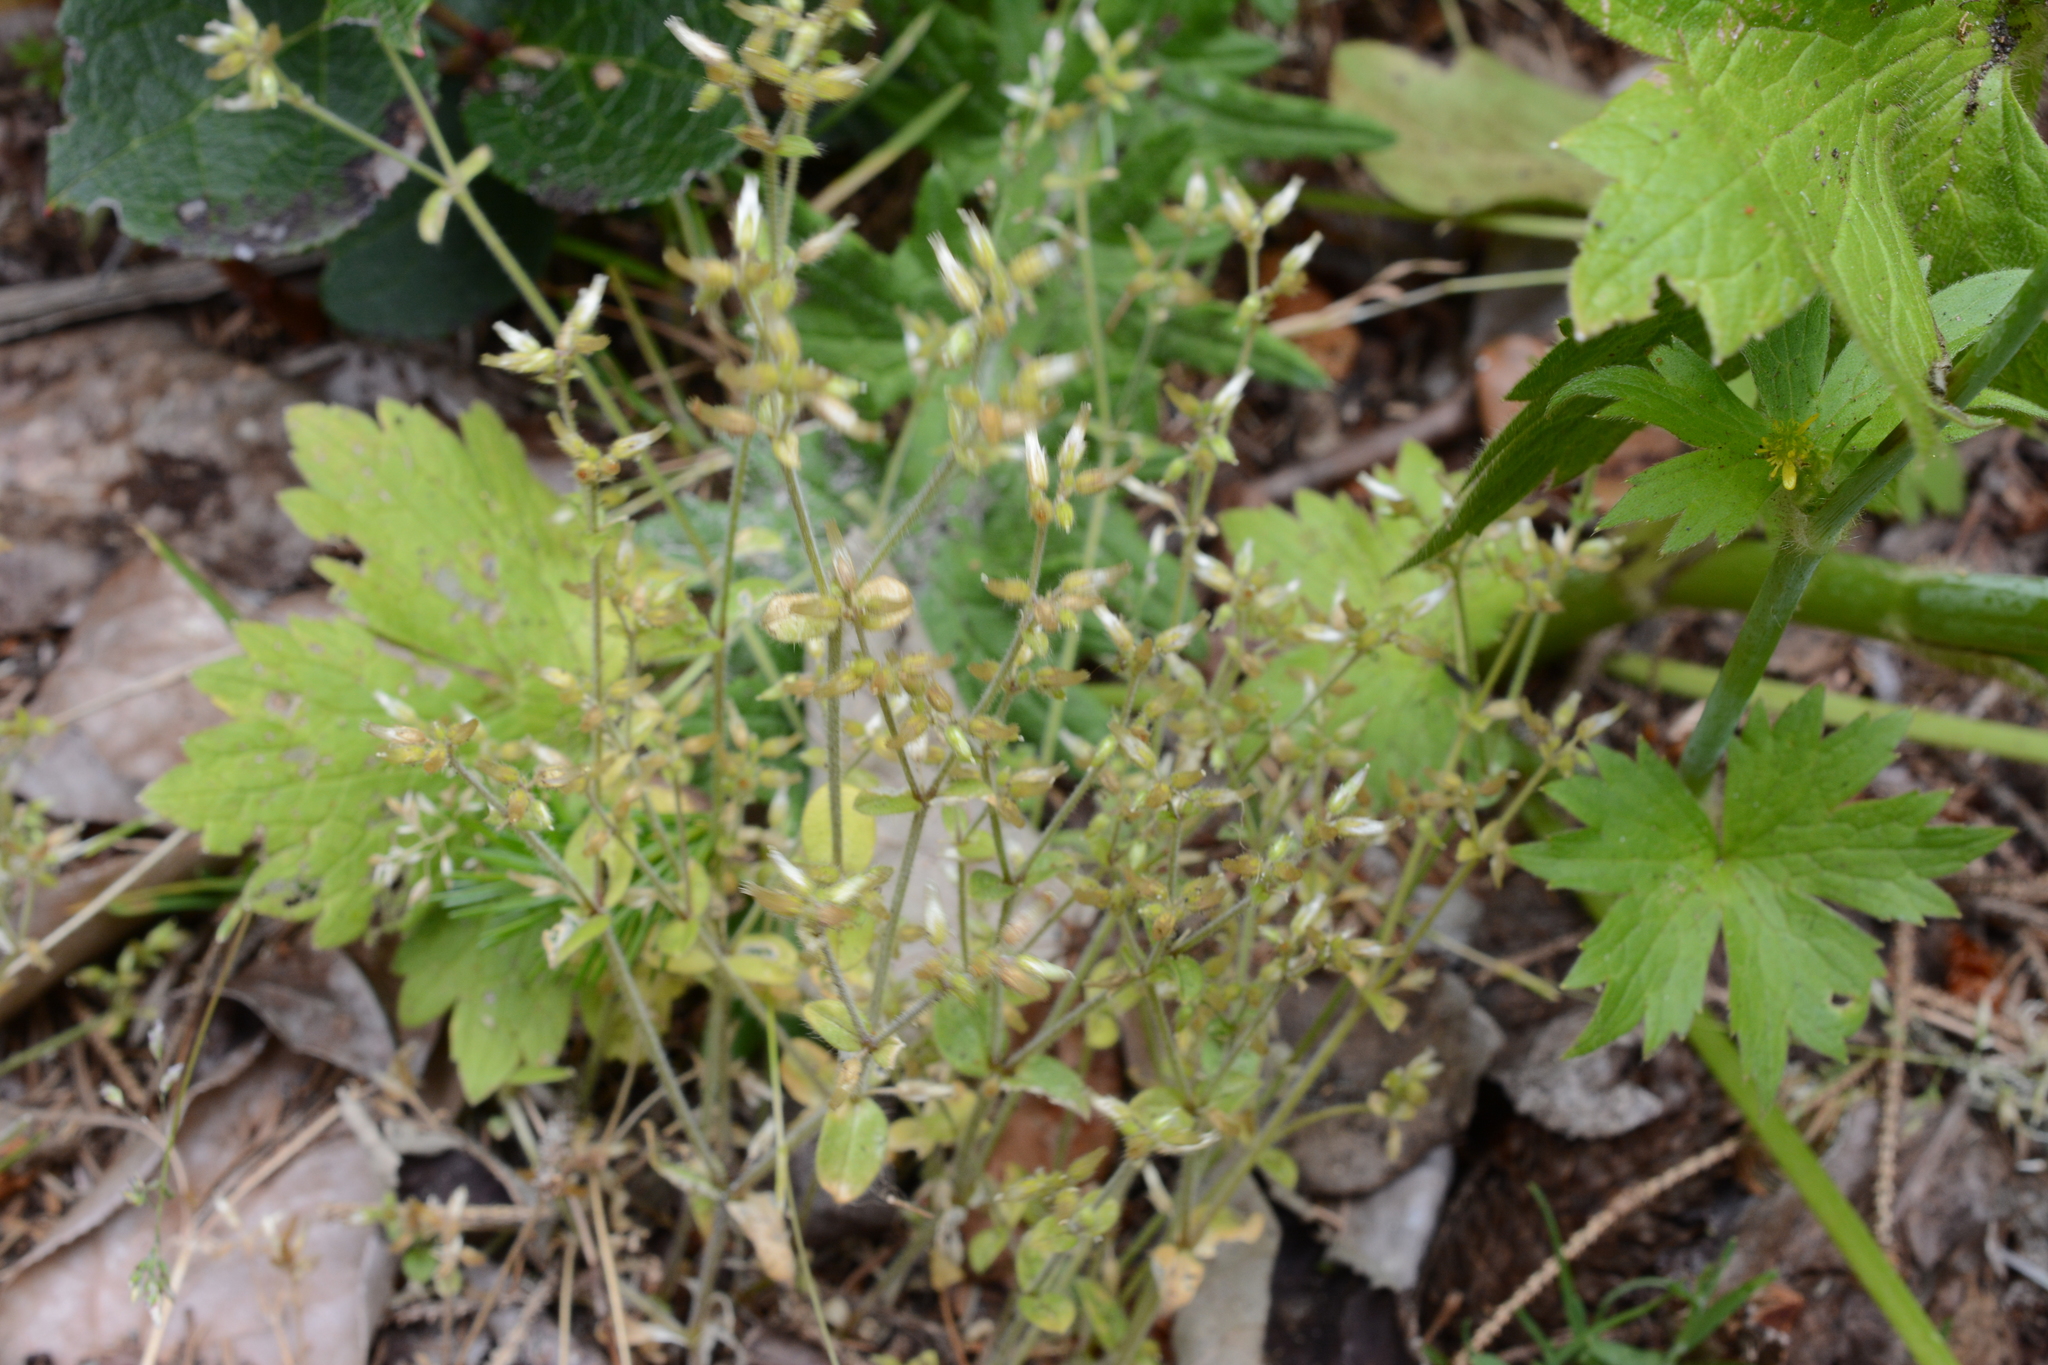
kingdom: Plantae
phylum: Tracheophyta
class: Magnoliopsida
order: Caryophyllales
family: Caryophyllaceae
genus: Cerastium
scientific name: Cerastium glomeratum
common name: Sticky chickweed
